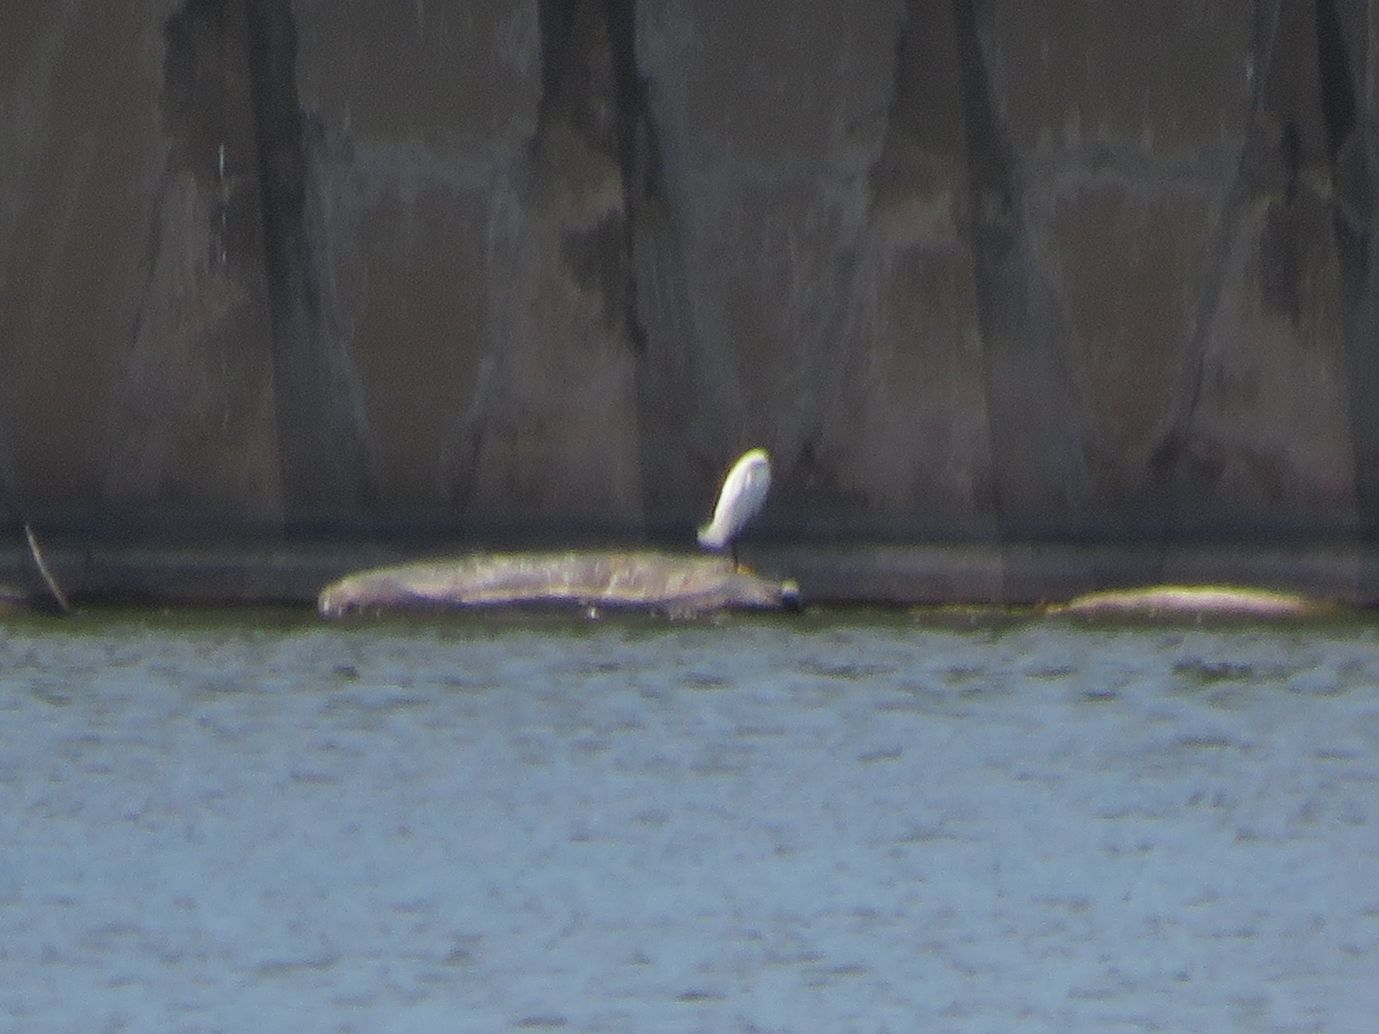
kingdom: Animalia
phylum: Chordata
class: Aves
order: Pelecaniformes
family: Ardeidae
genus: Egretta
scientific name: Egretta thula
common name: Snowy egret
